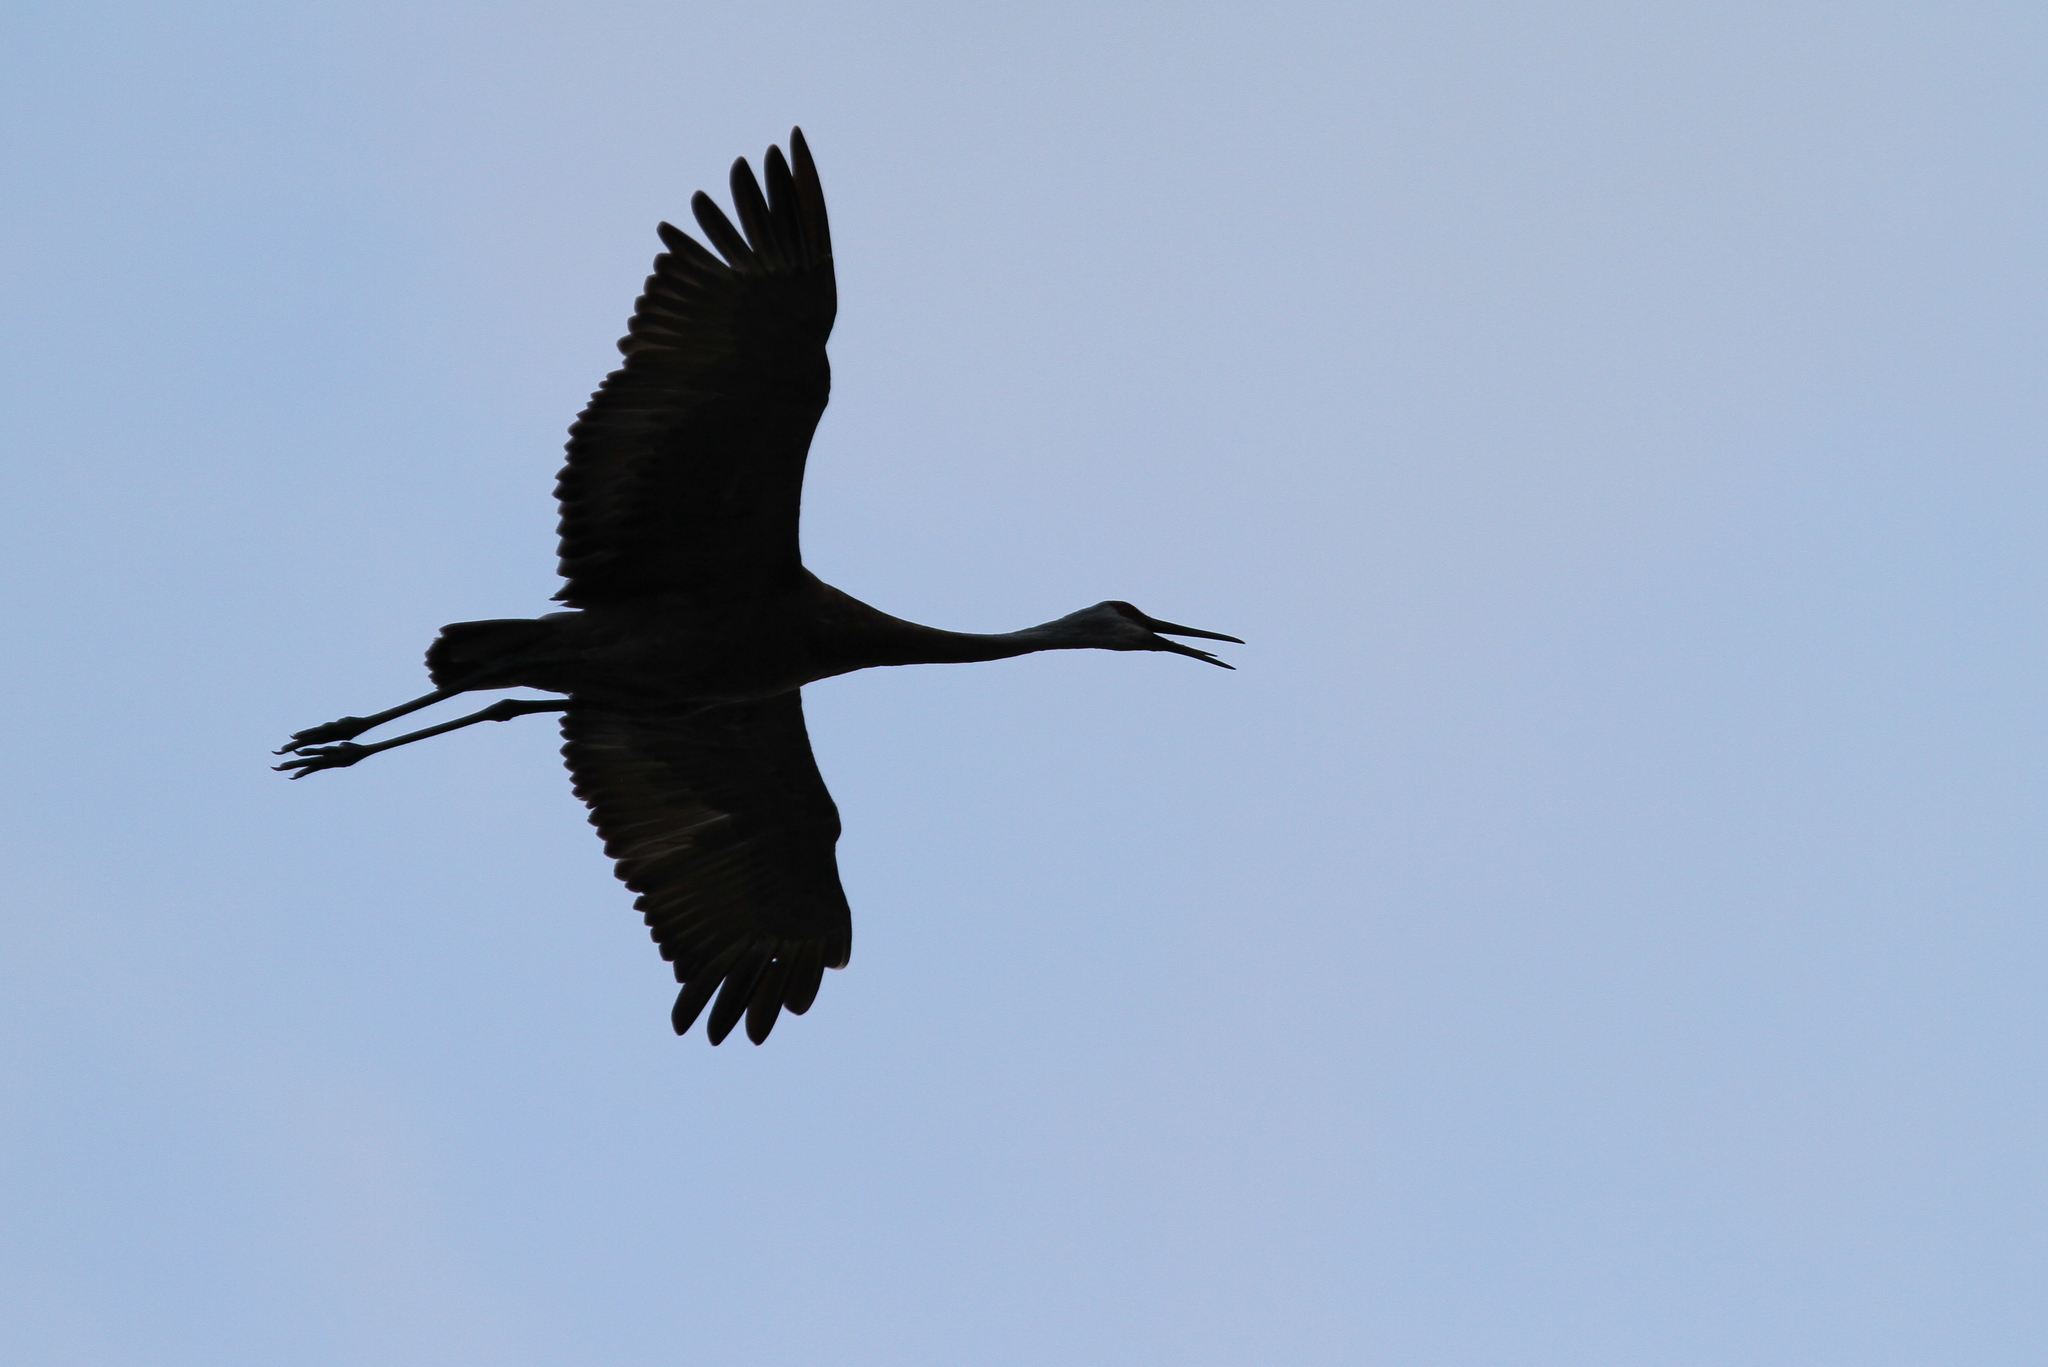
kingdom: Animalia
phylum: Chordata
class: Aves
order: Gruiformes
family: Gruidae
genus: Grus
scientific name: Grus canadensis
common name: Sandhill crane
